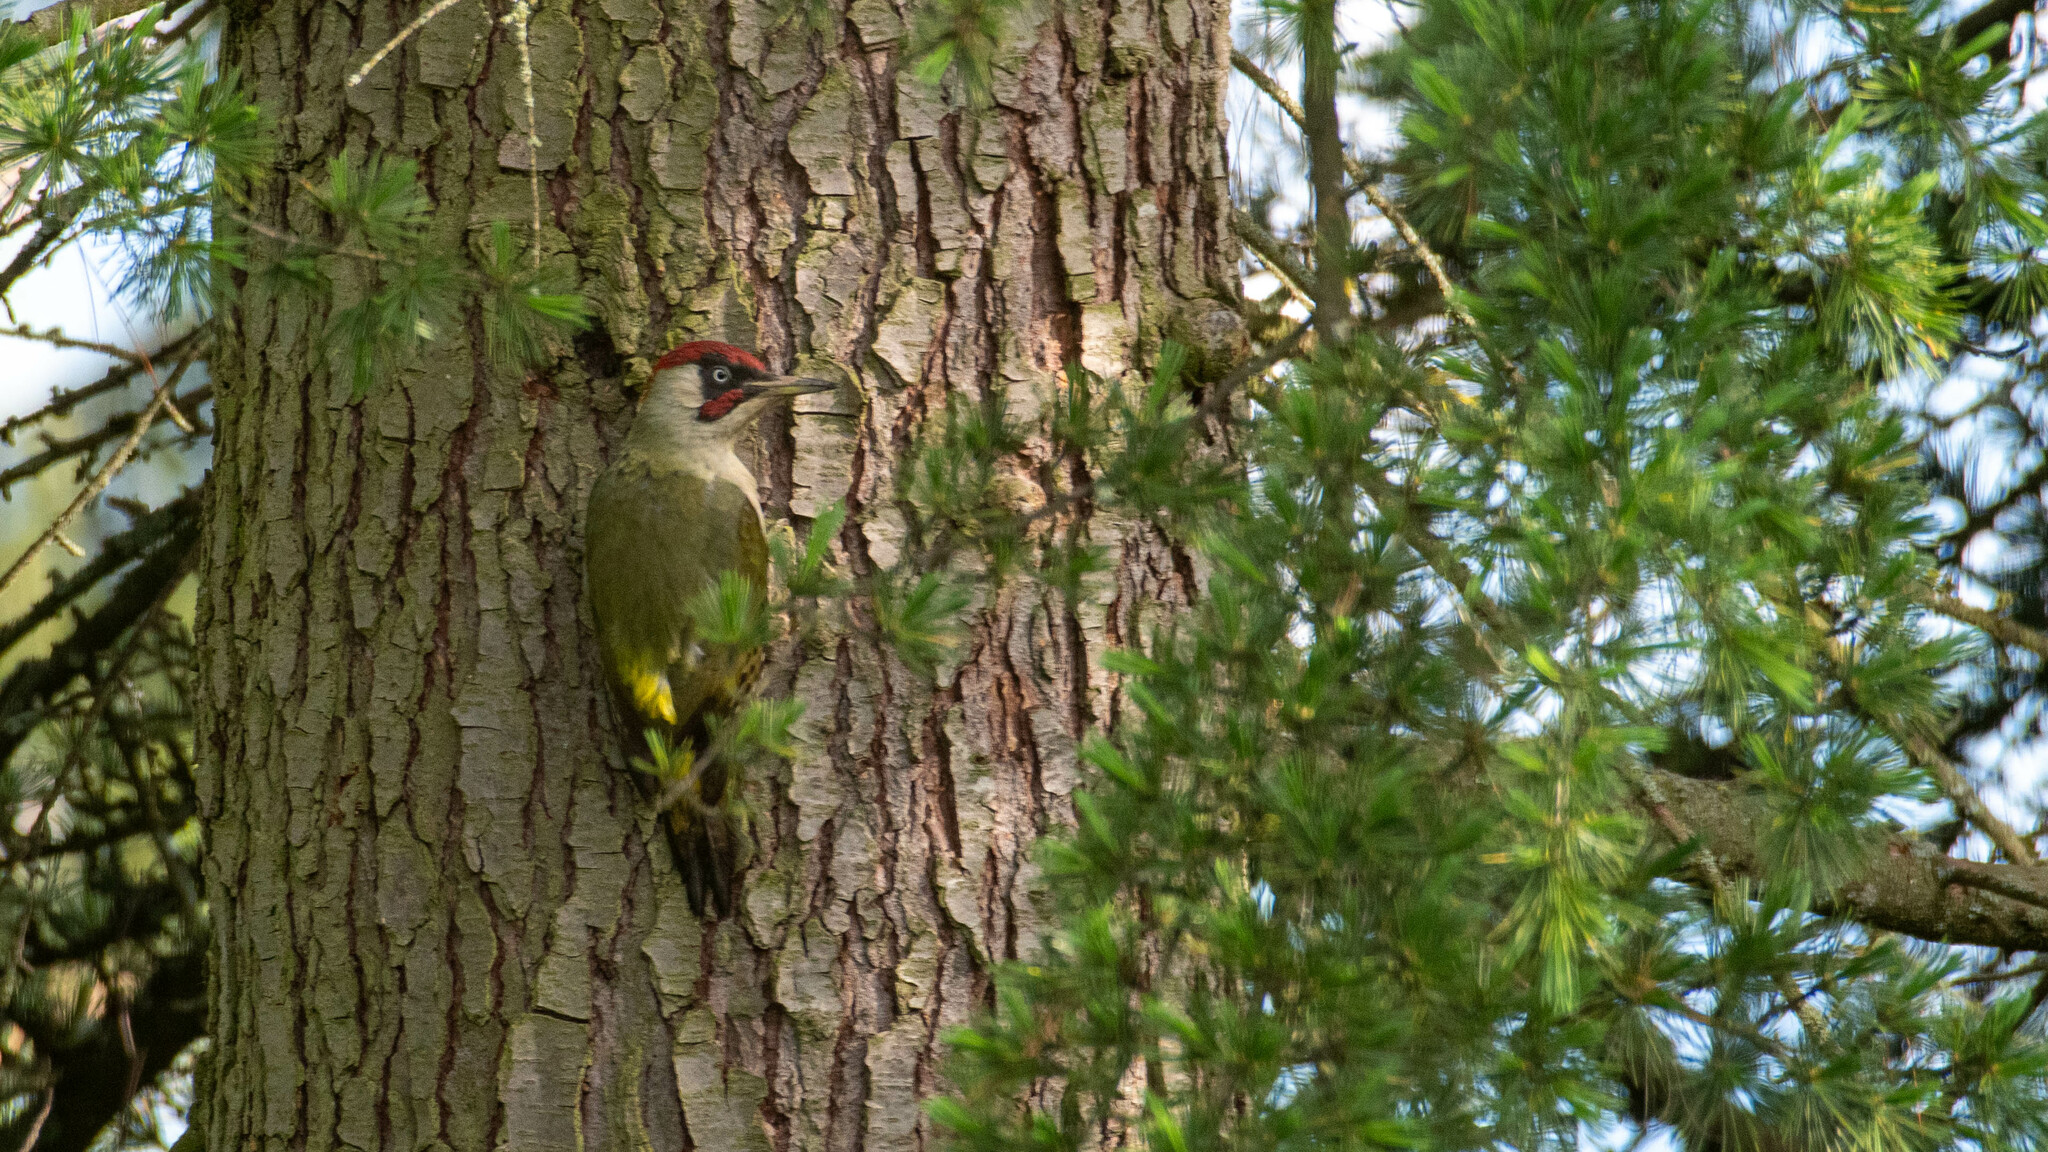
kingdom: Animalia
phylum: Chordata
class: Aves
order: Piciformes
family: Picidae
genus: Picus
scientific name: Picus viridis
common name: European green woodpecker
